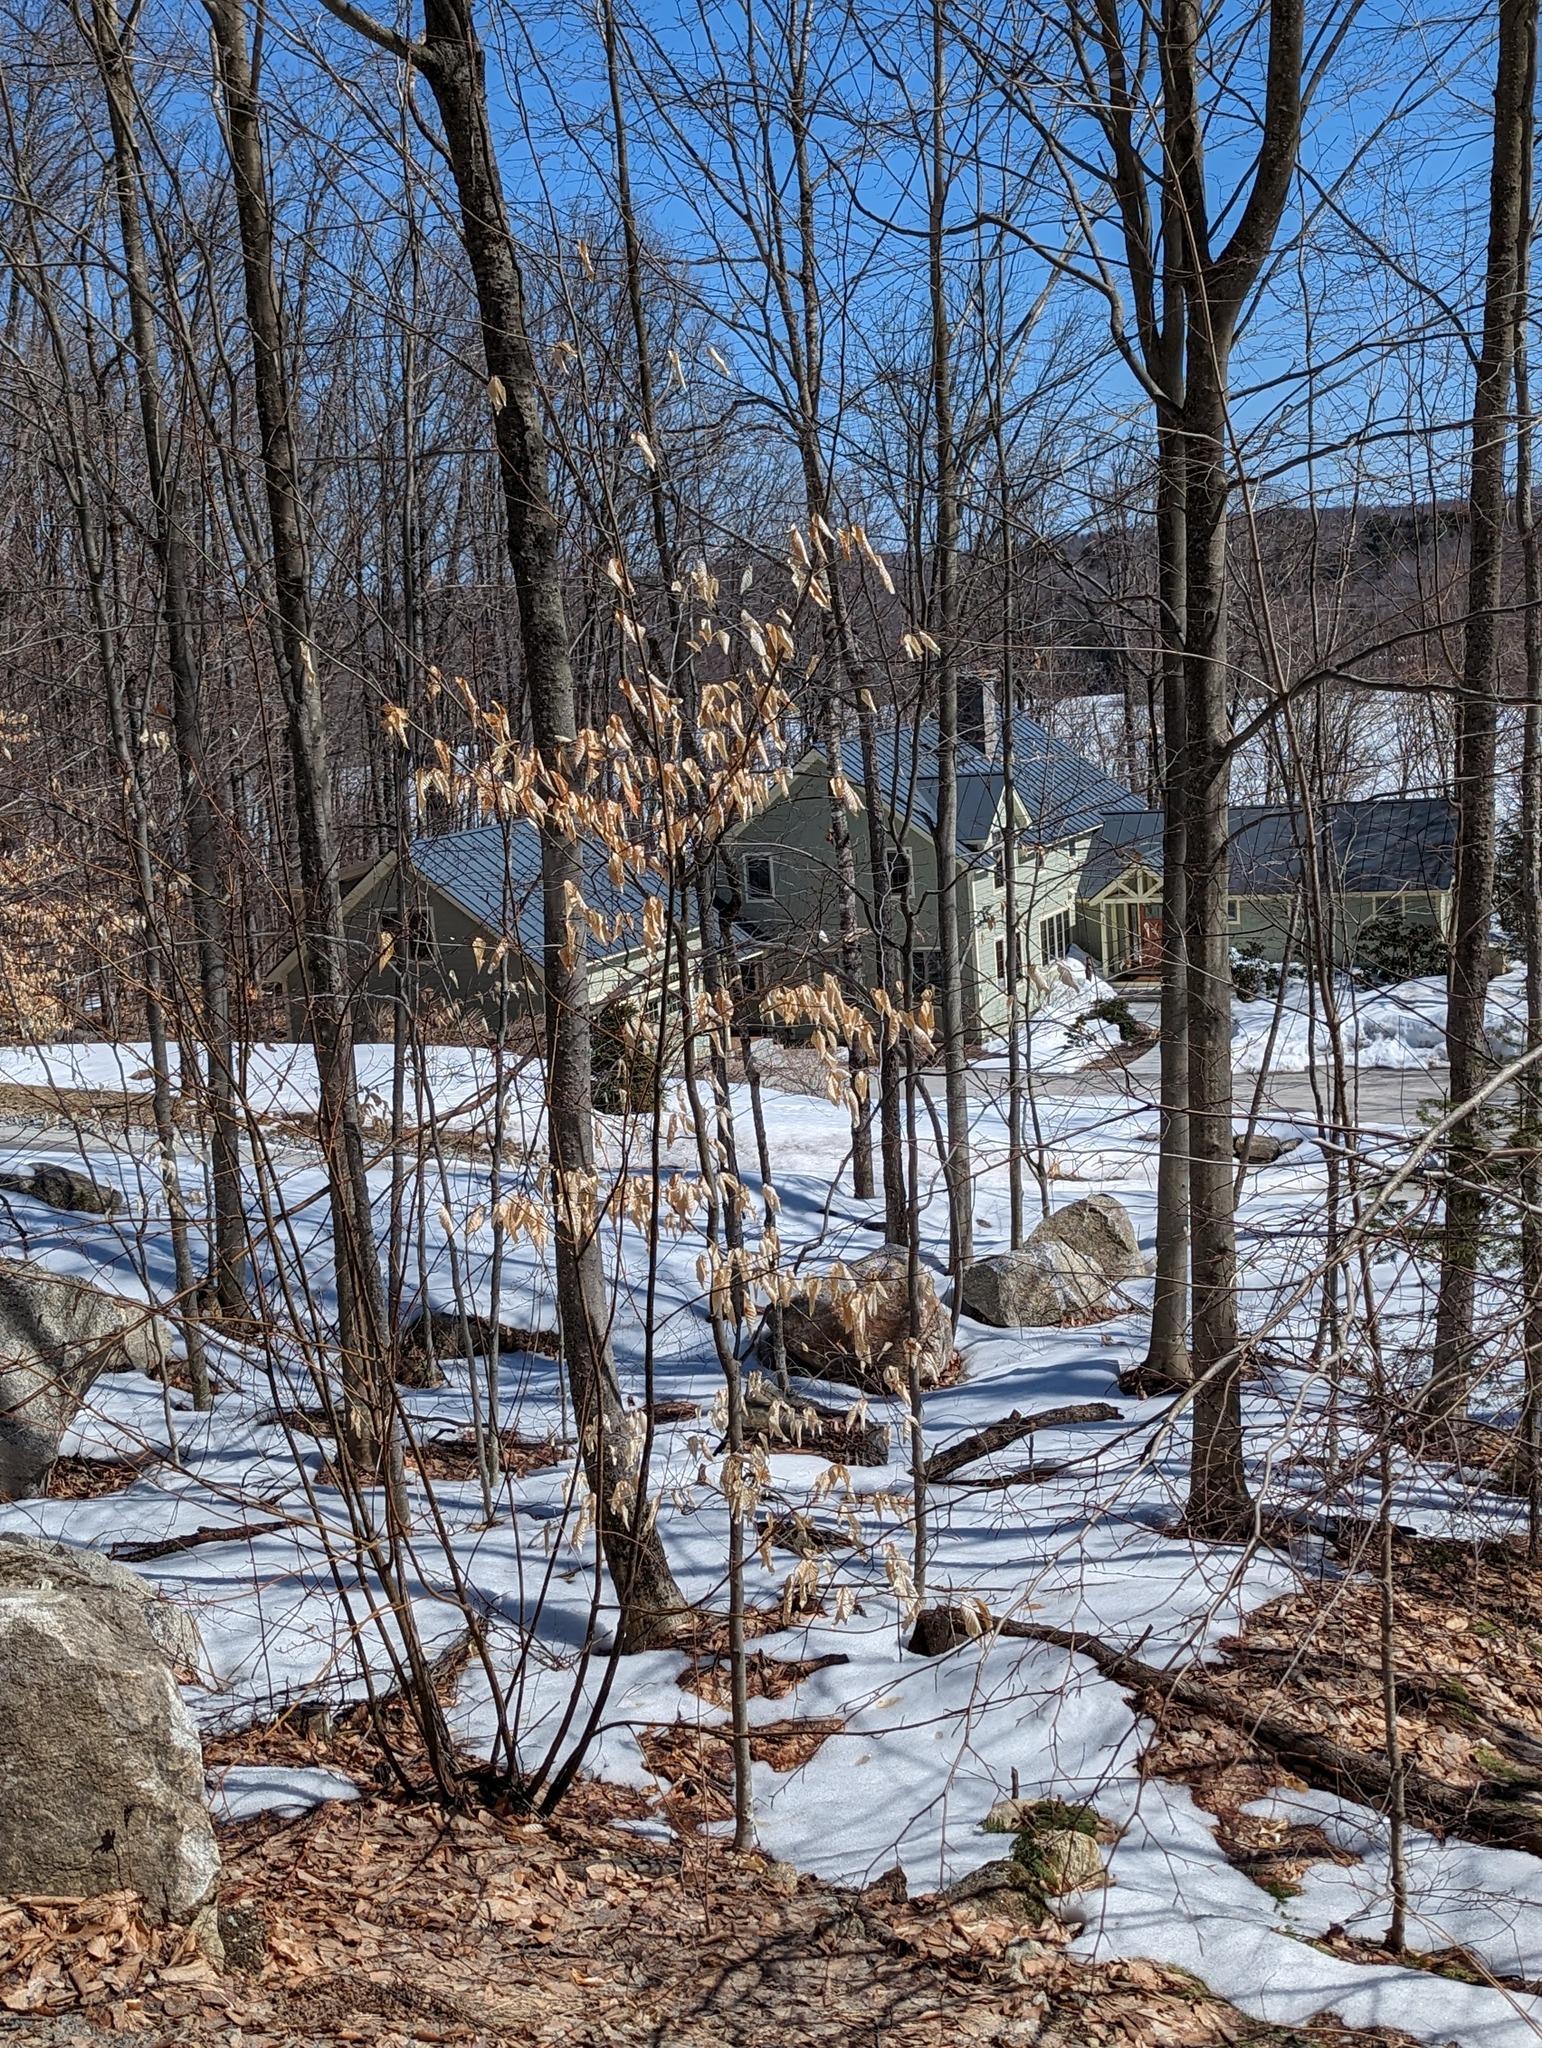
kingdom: Plantae
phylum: Tracheophyta
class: Magnoliopsida
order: Fagales
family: Fagaceae
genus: Fagus
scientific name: Fagus grandifolia
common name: American beech
